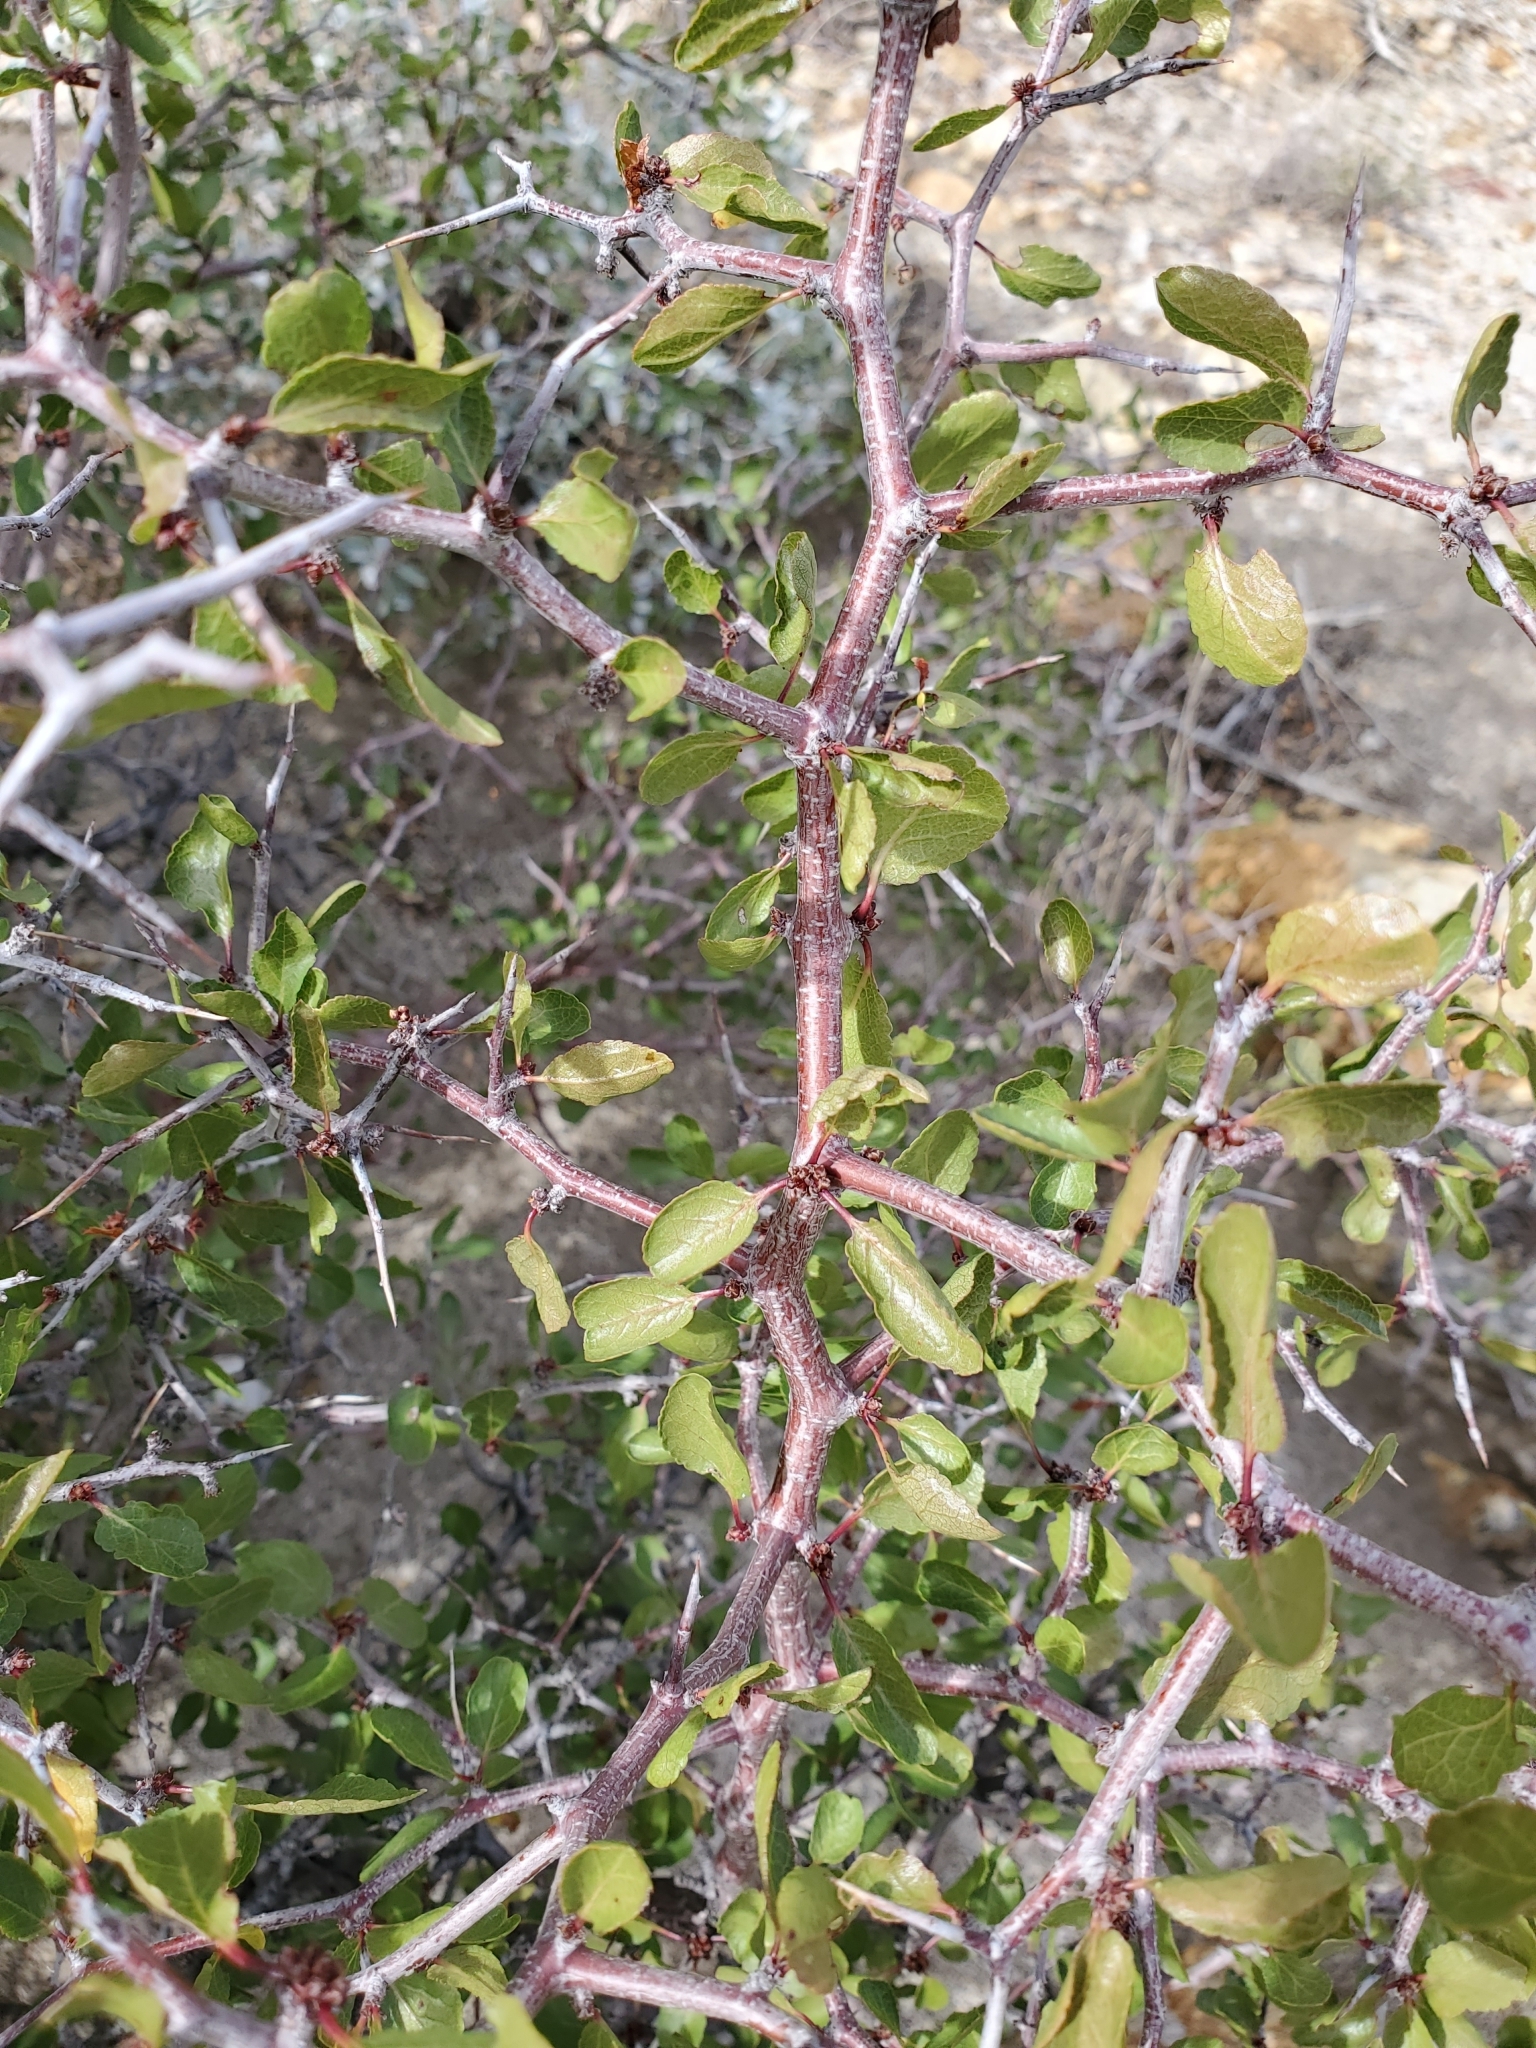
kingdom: Plantae
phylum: Tracheophyta
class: Magnoliopsida
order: Rosales
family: Rosaceae
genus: Prunus
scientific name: Prunus fremontii
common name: Desert apricot
